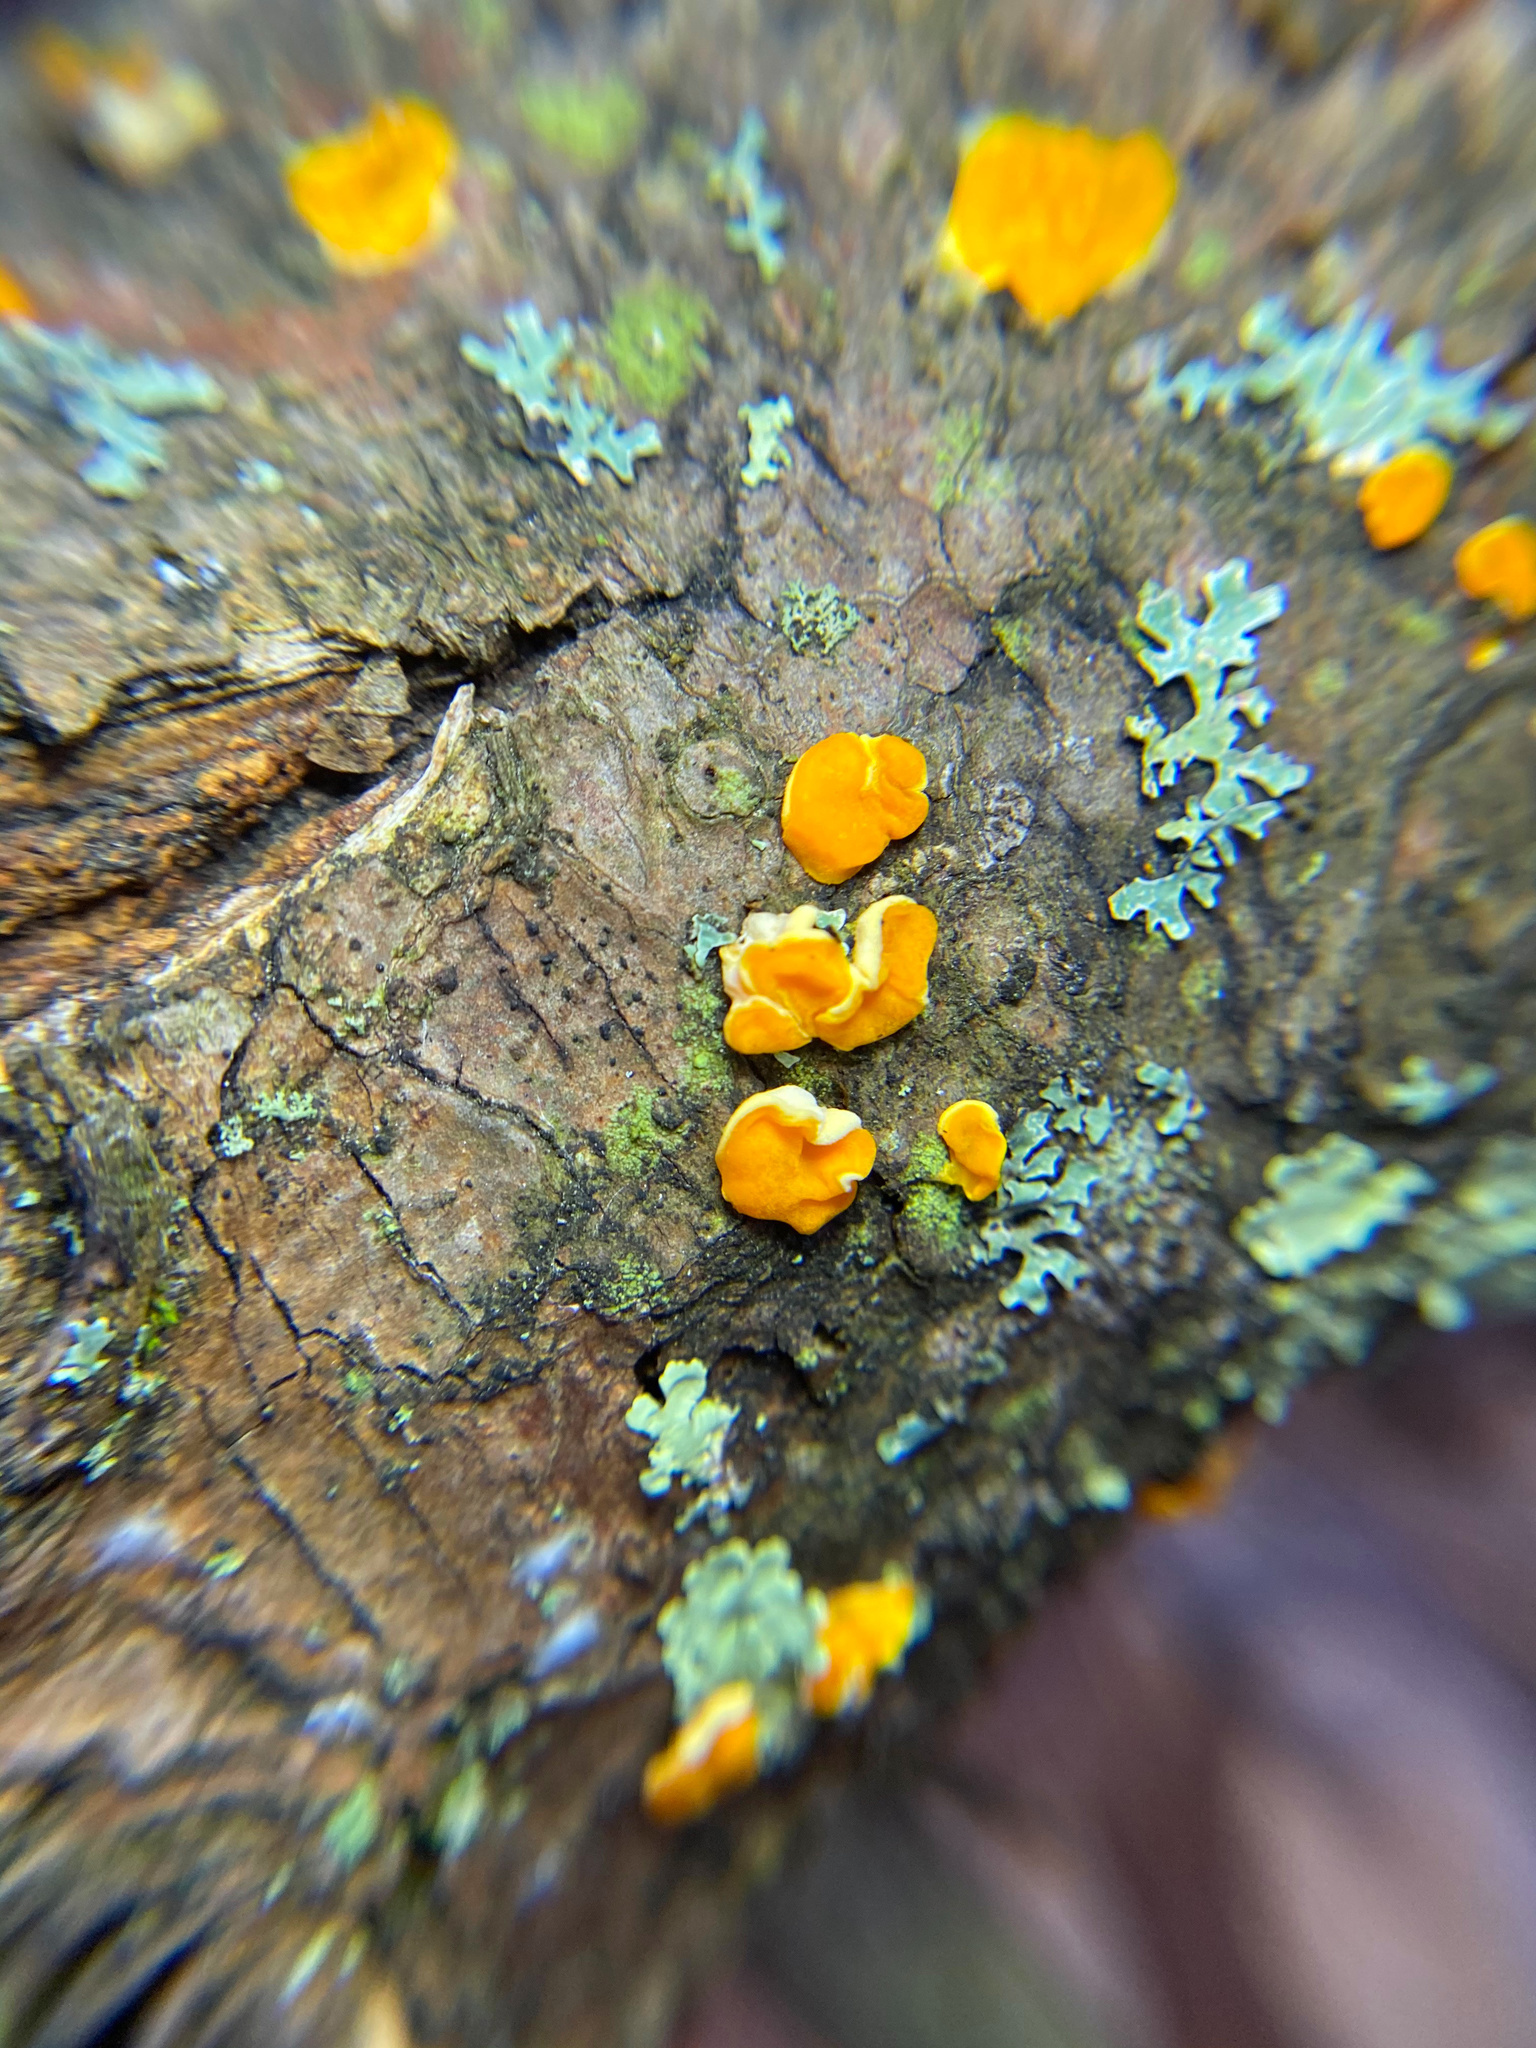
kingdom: Fungi
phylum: Basidiomycota
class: Dacrymycetes
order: Dacrymycetales
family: Dacrymycetaceae
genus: Ditiola
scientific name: Ditiola peziziformis
